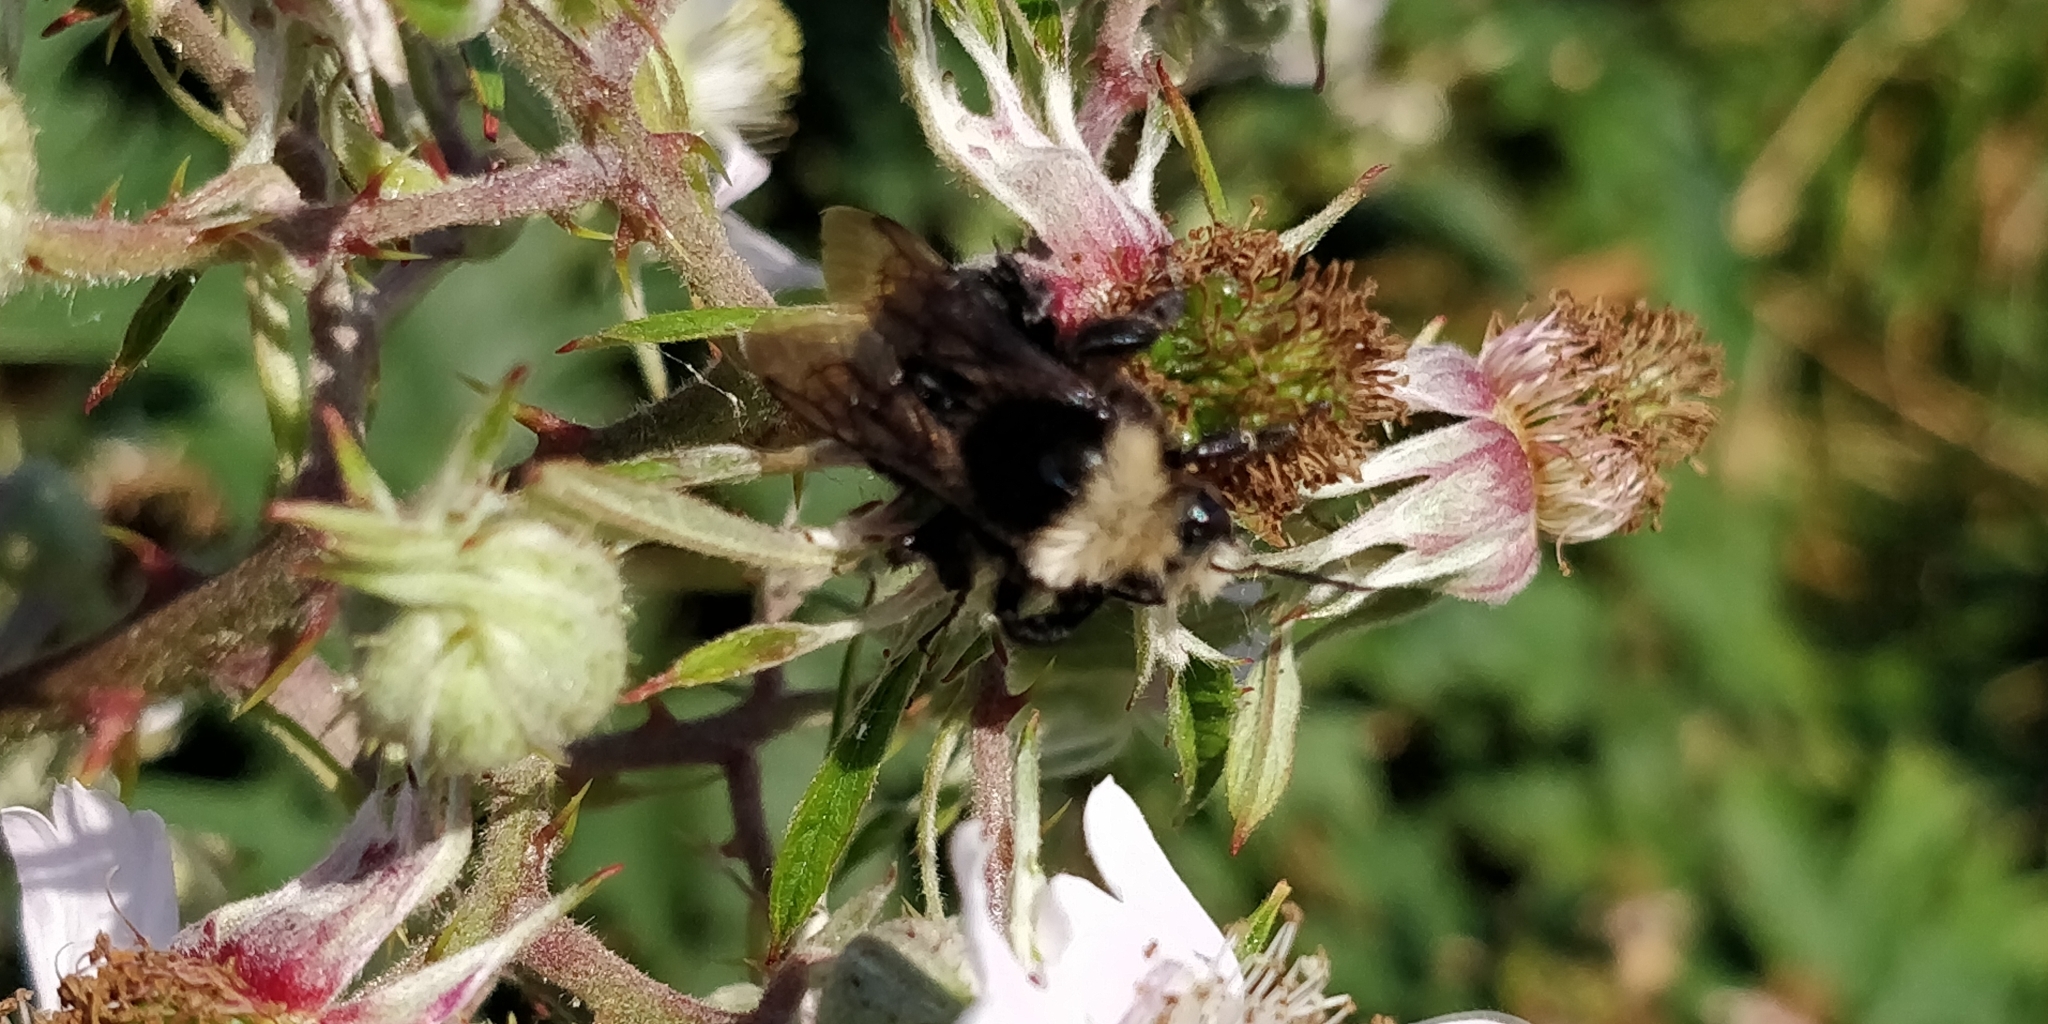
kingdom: Animalia
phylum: Arthropoda
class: Insecta
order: Hymenoptera
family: Apidae
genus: Bombus
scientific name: Bombus vosnesenskii
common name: Vosnesensky bumble bee
